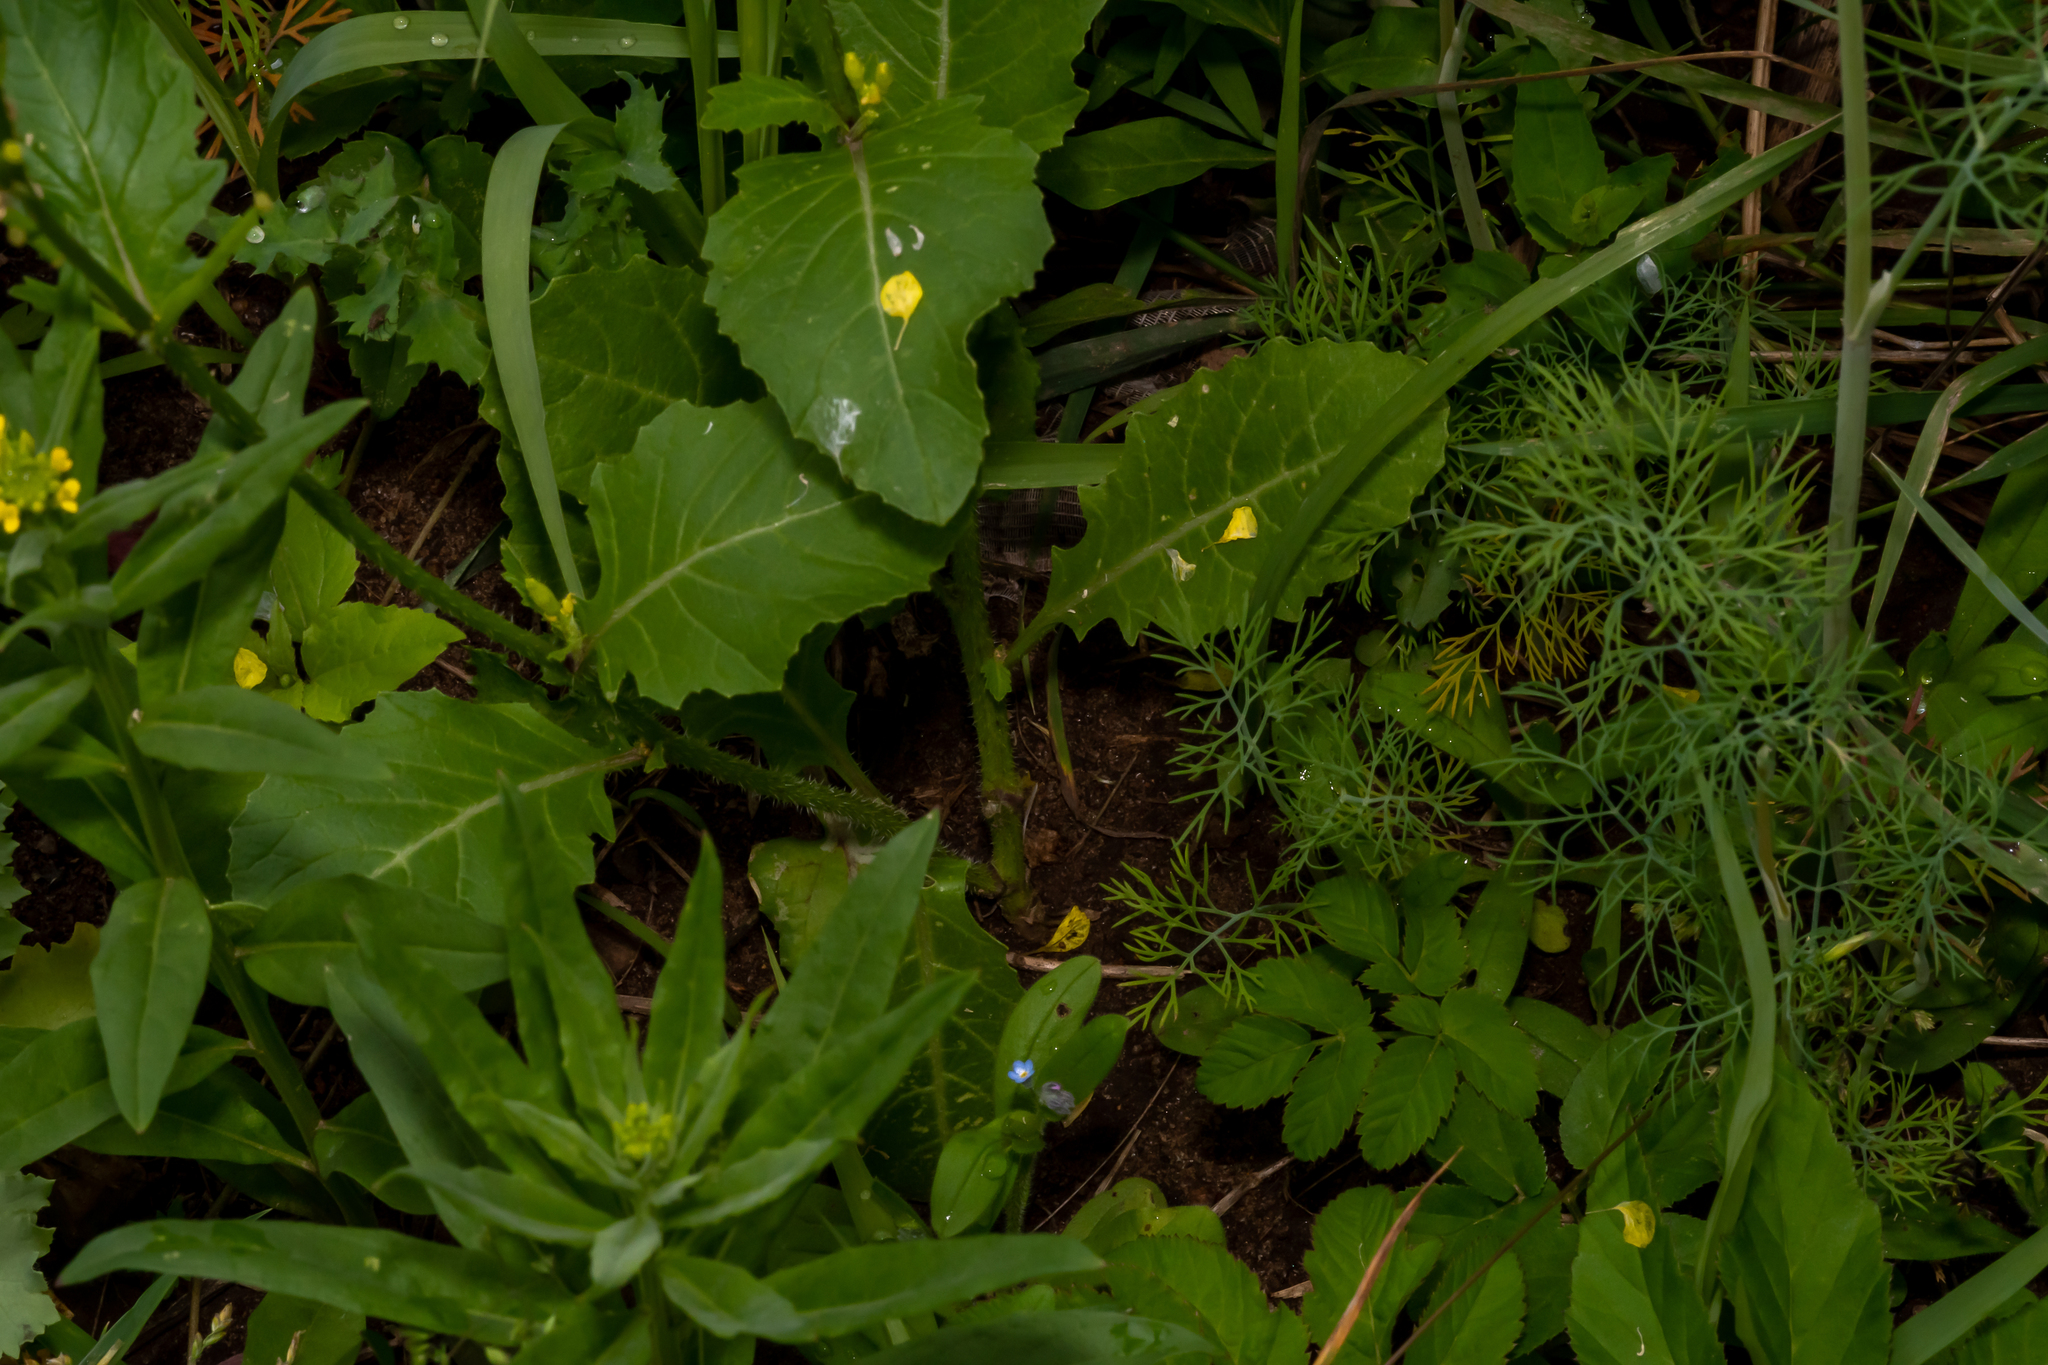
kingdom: Plantae
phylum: Tracheophyta
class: Magnoliopsida
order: Brassicales
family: Brassicaceae
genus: Sinapis
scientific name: Sinapis arvensis
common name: Charlock
